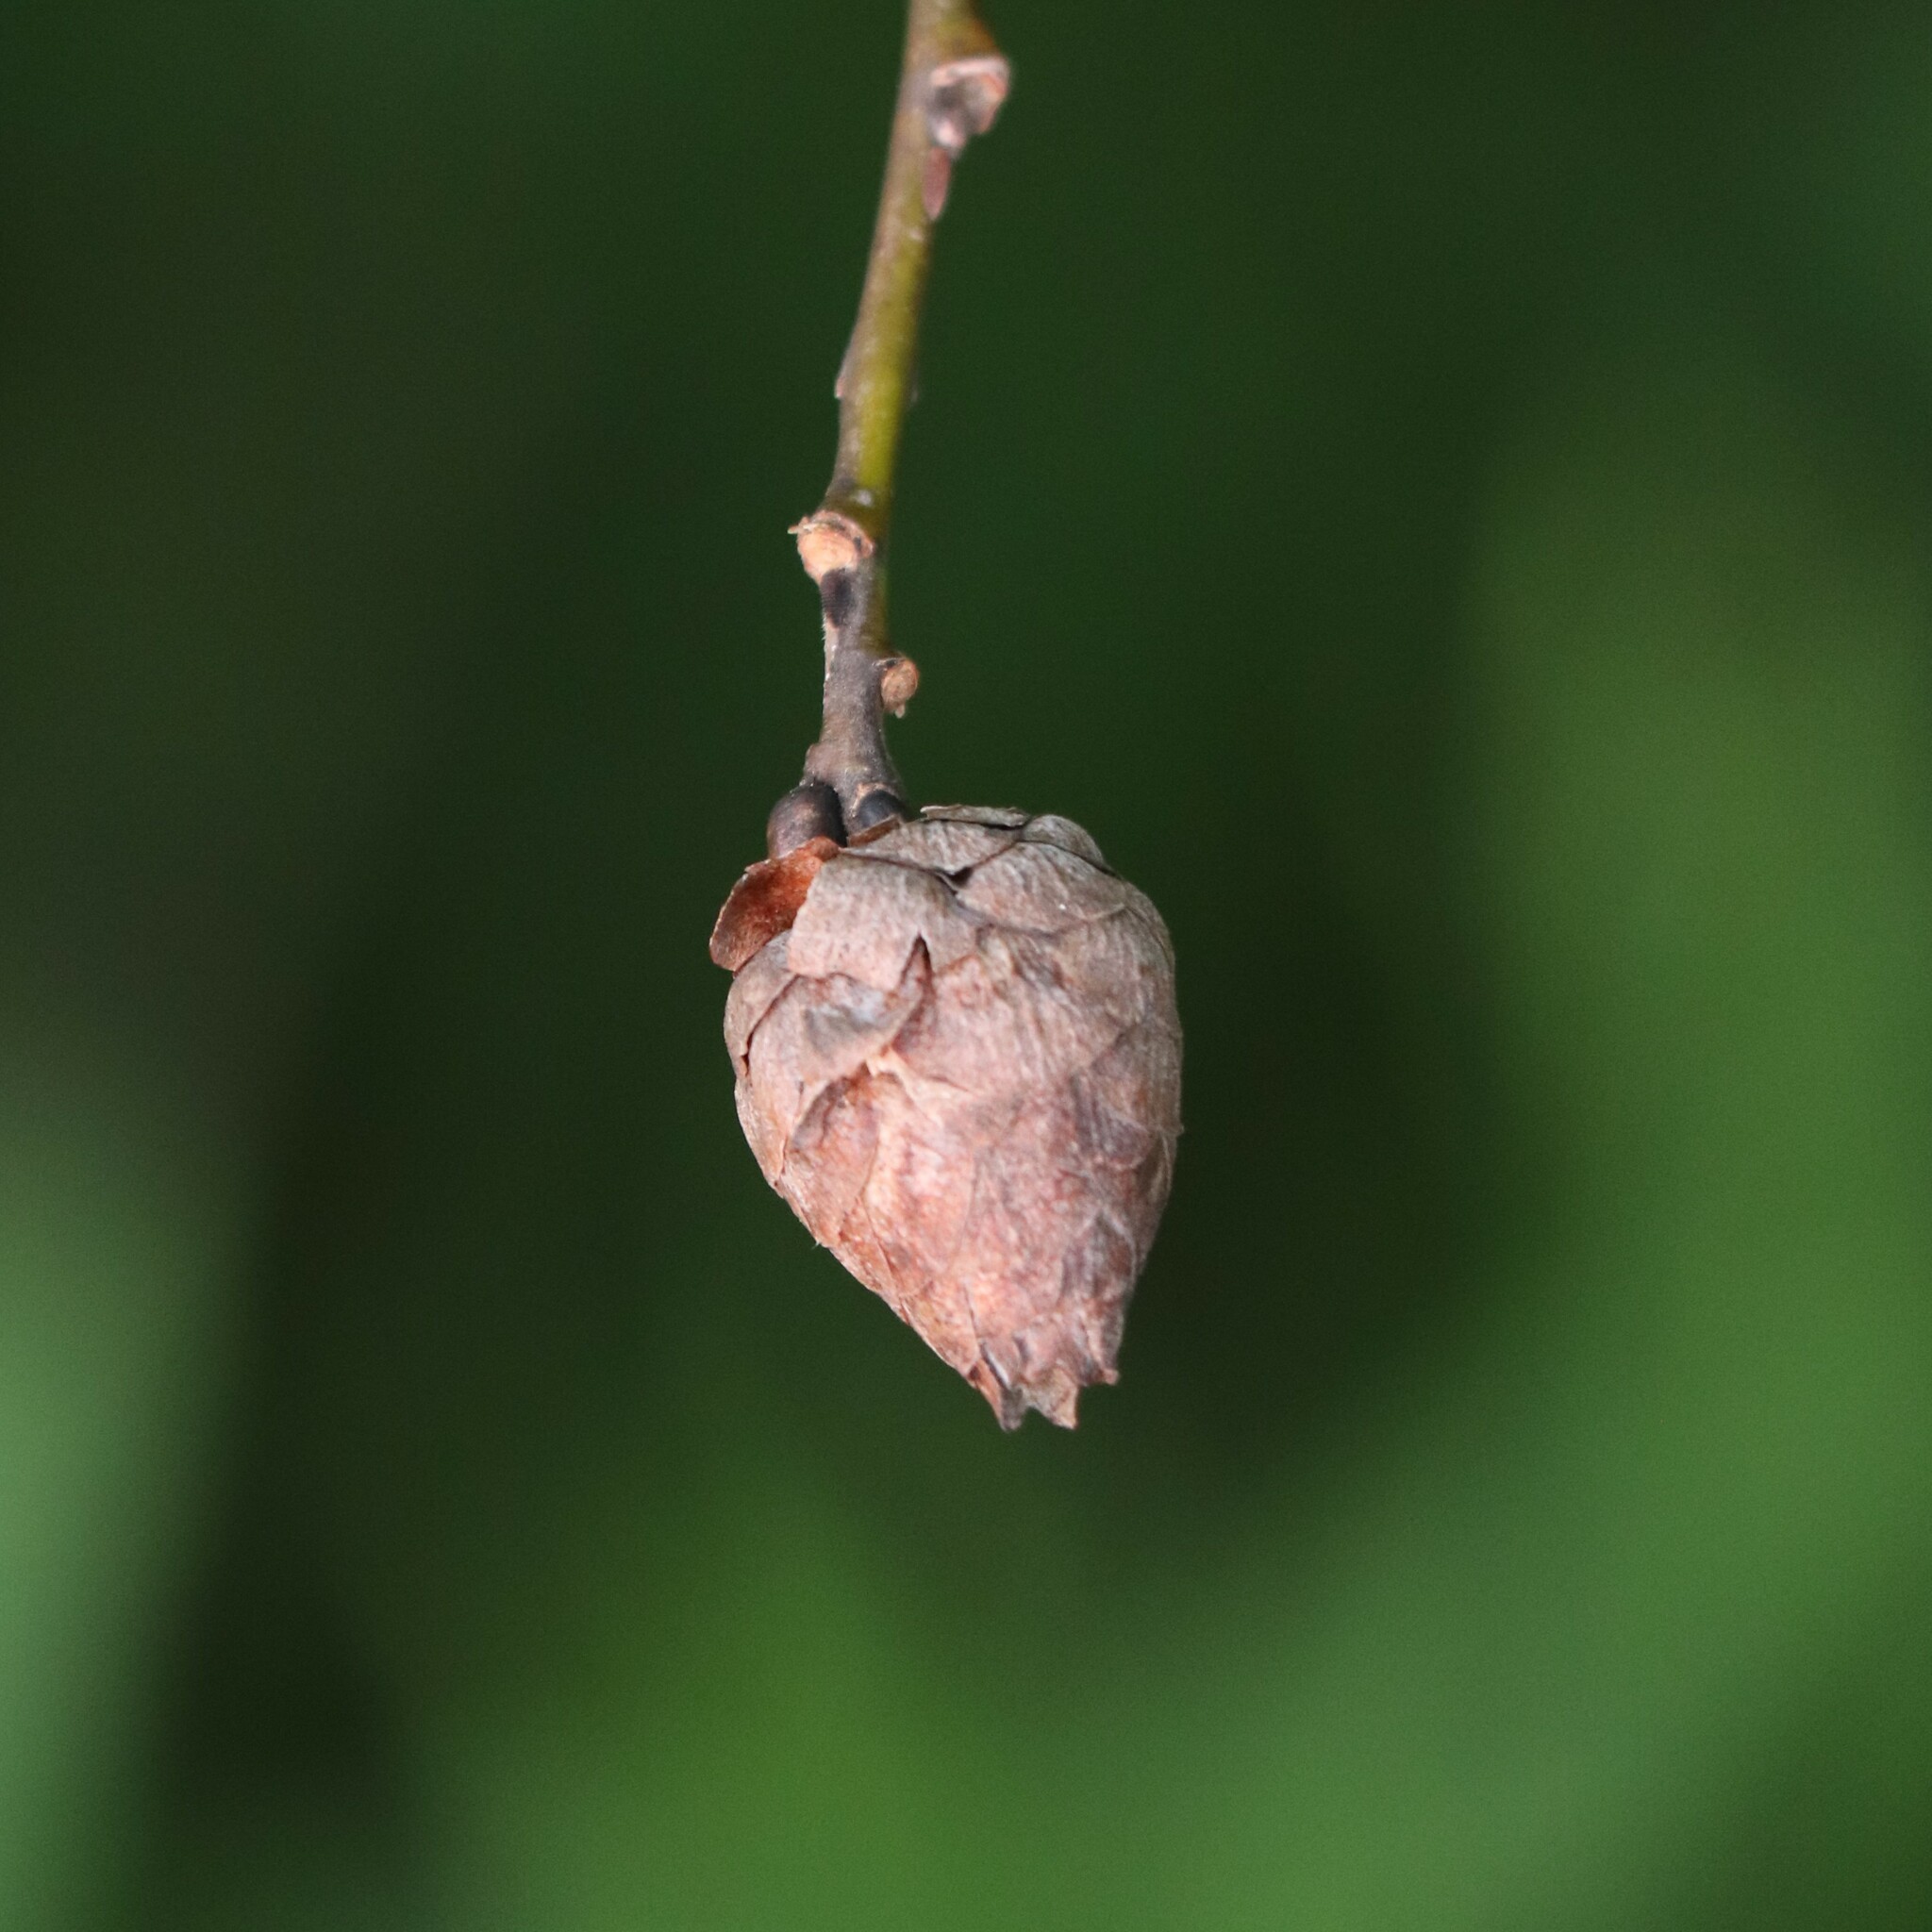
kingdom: Animalia
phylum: Arthropoda
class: Insecta
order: Diptera
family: Cecidomyiidae
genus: Rabdophaga
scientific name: Rabdophaga strobiloides
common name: Willow pinecone gall midge
